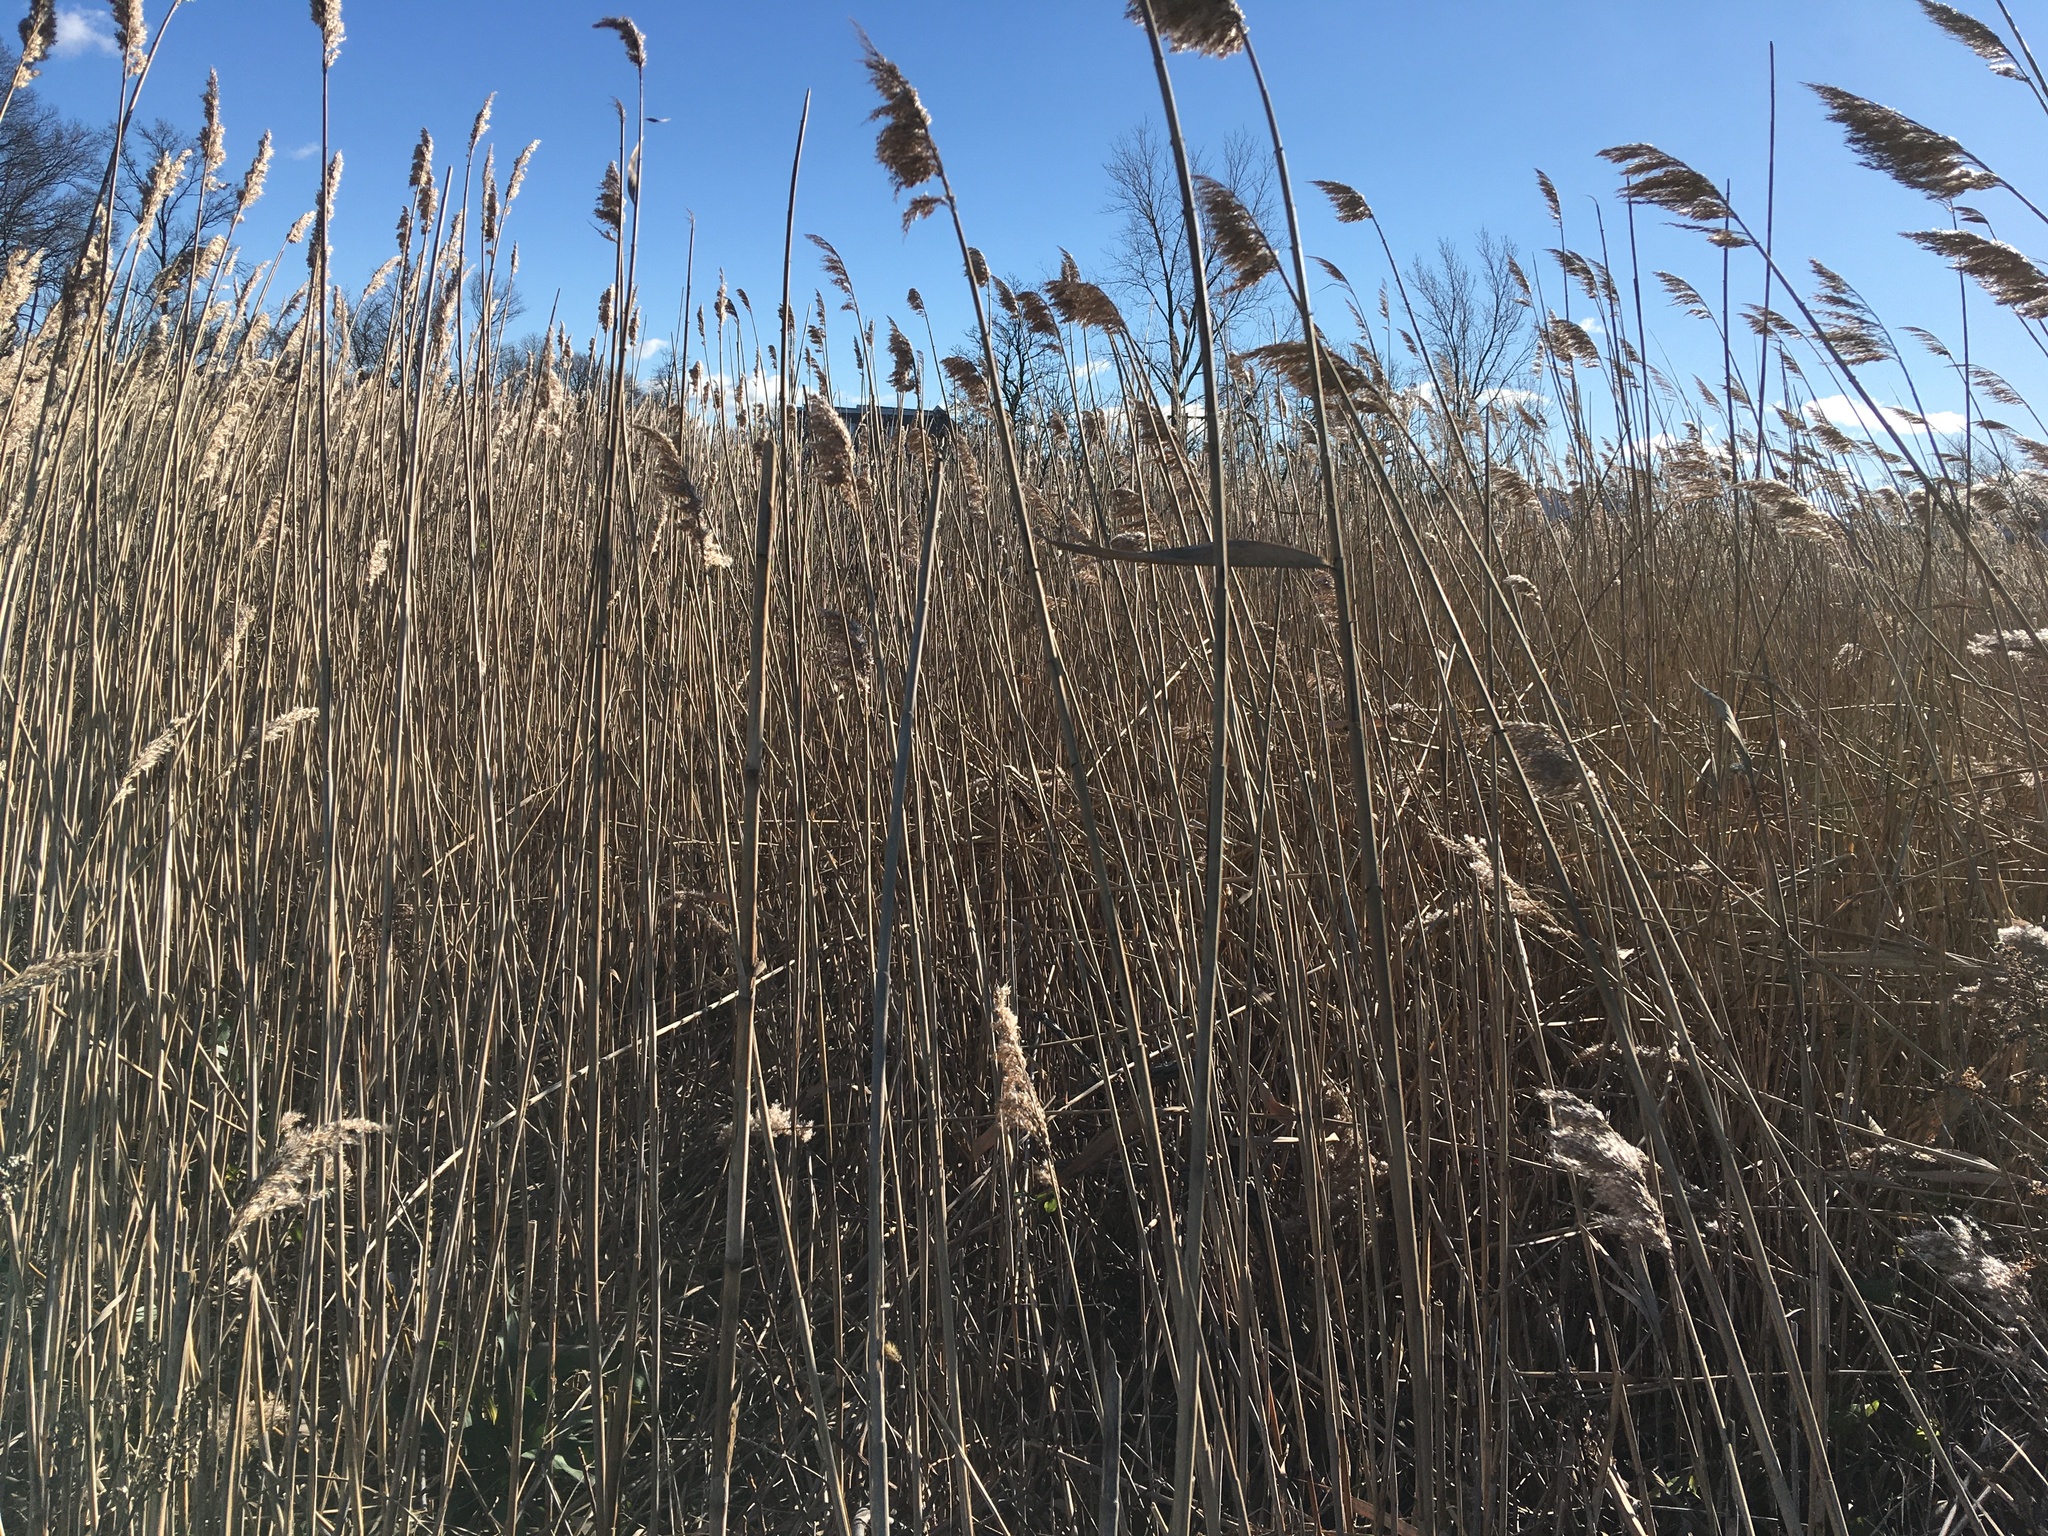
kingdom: Plantae
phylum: Tracheophyta
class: Liliopsida
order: Poales
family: Poaceae
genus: Phragmites
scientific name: Phragmites australis
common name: Common reed
